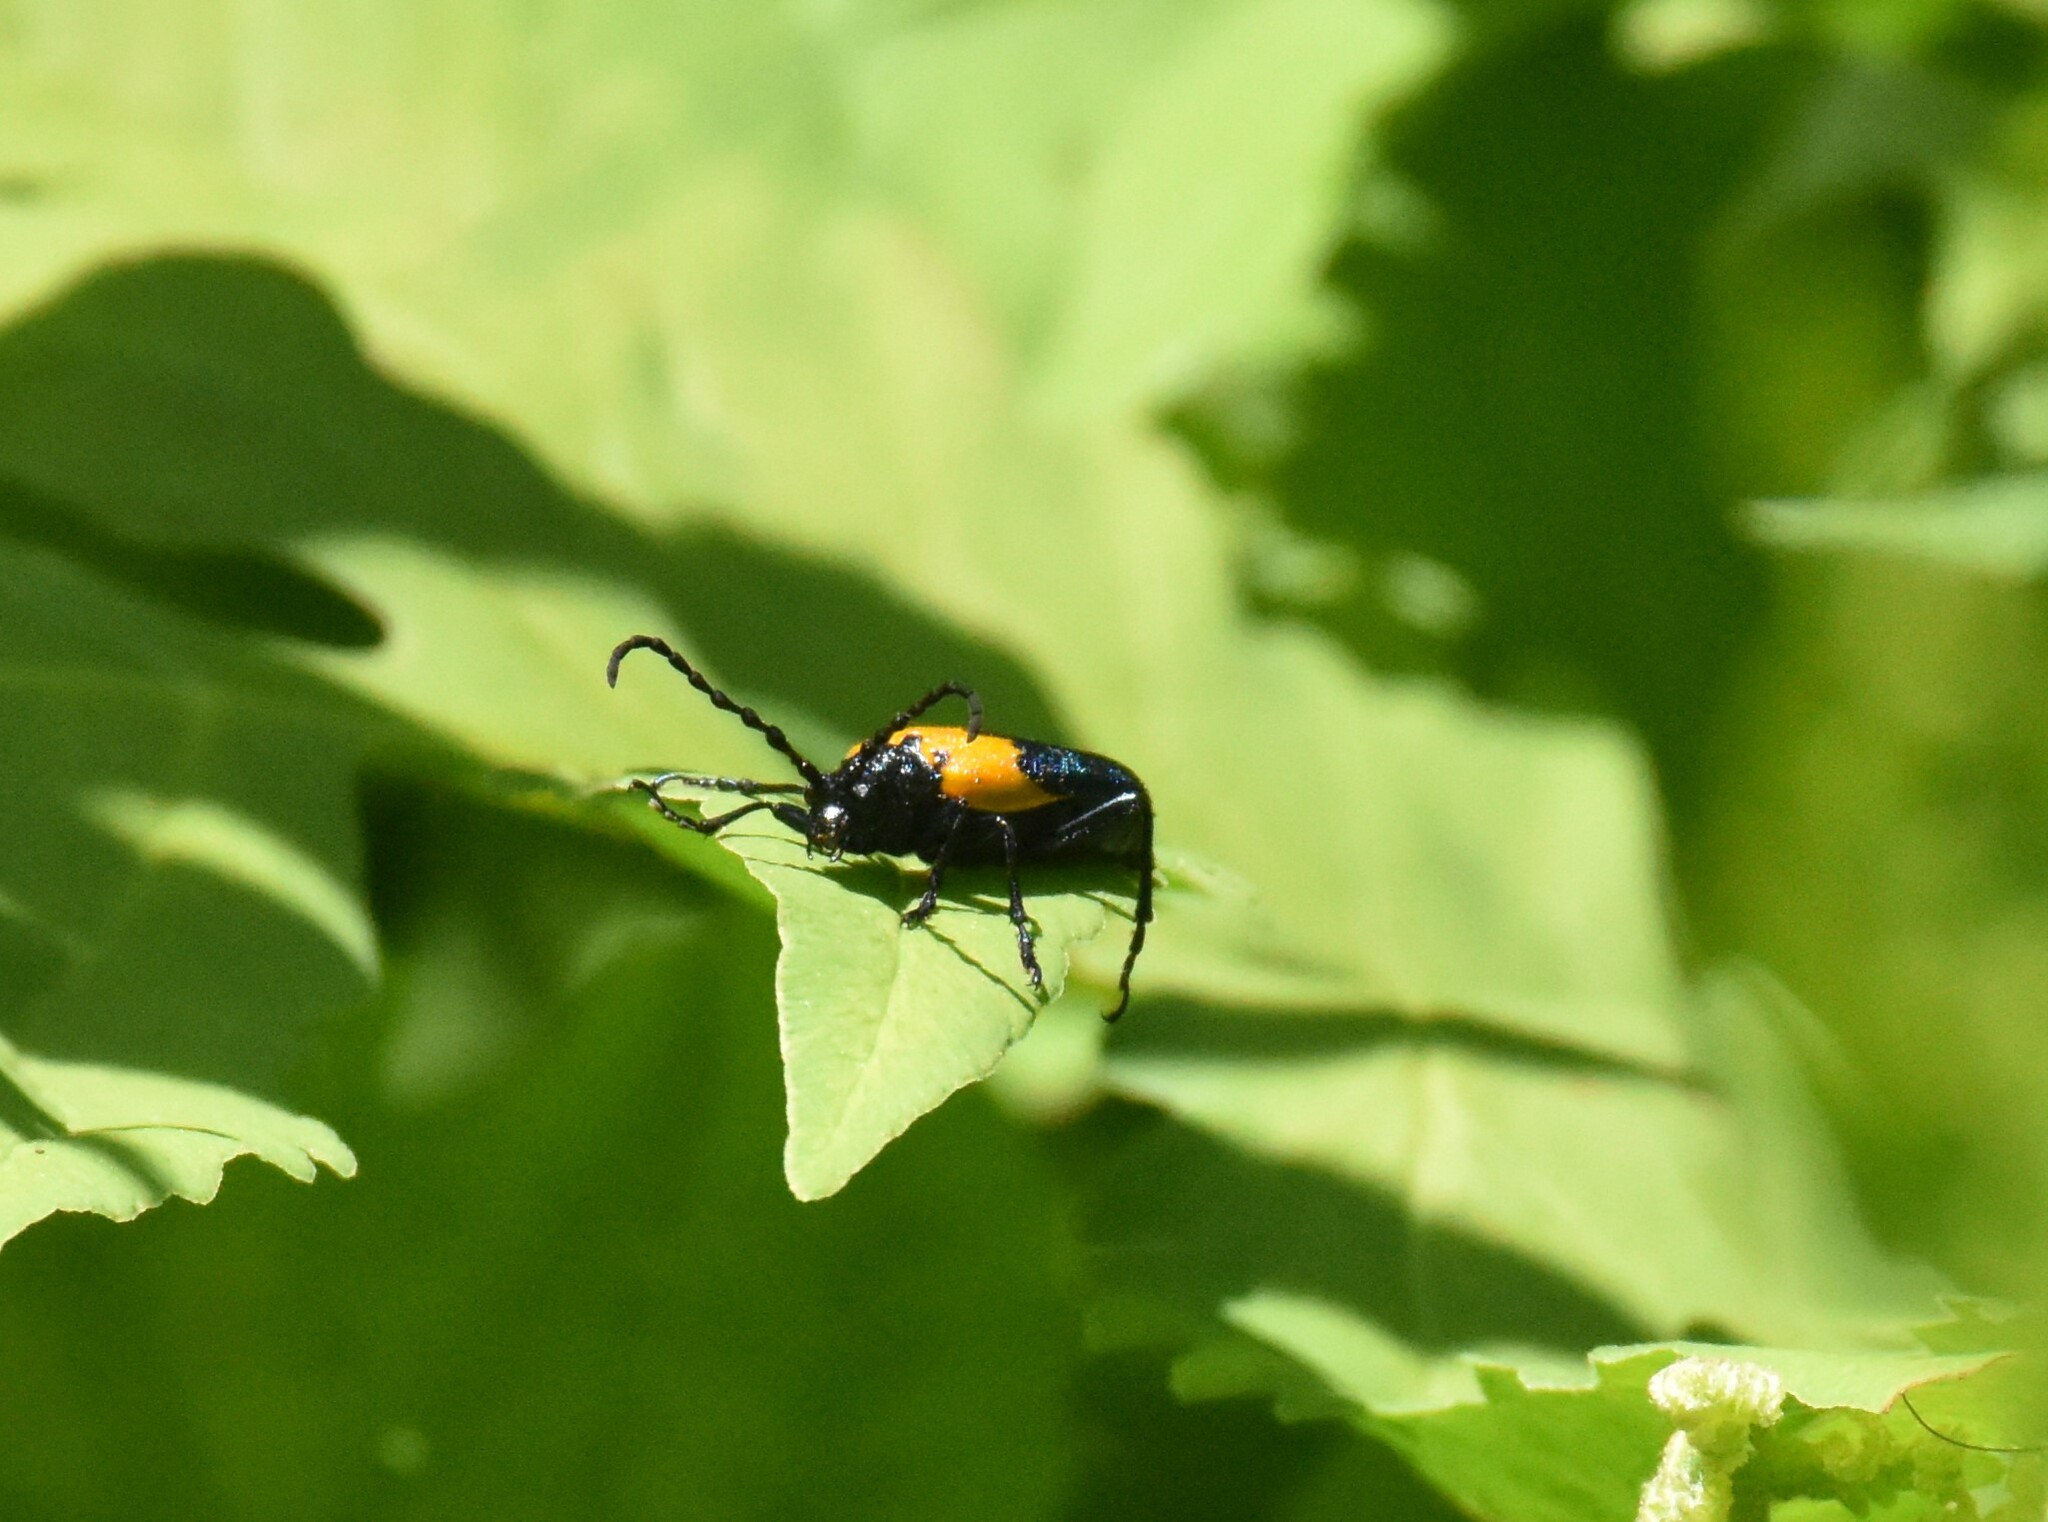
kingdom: Animalia
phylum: Arthropoda
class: Insecta
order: Coleoptera
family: Cerambycidae
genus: Desmocerus
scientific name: Desmocerus palliatus
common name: Eastern elderberry borer
